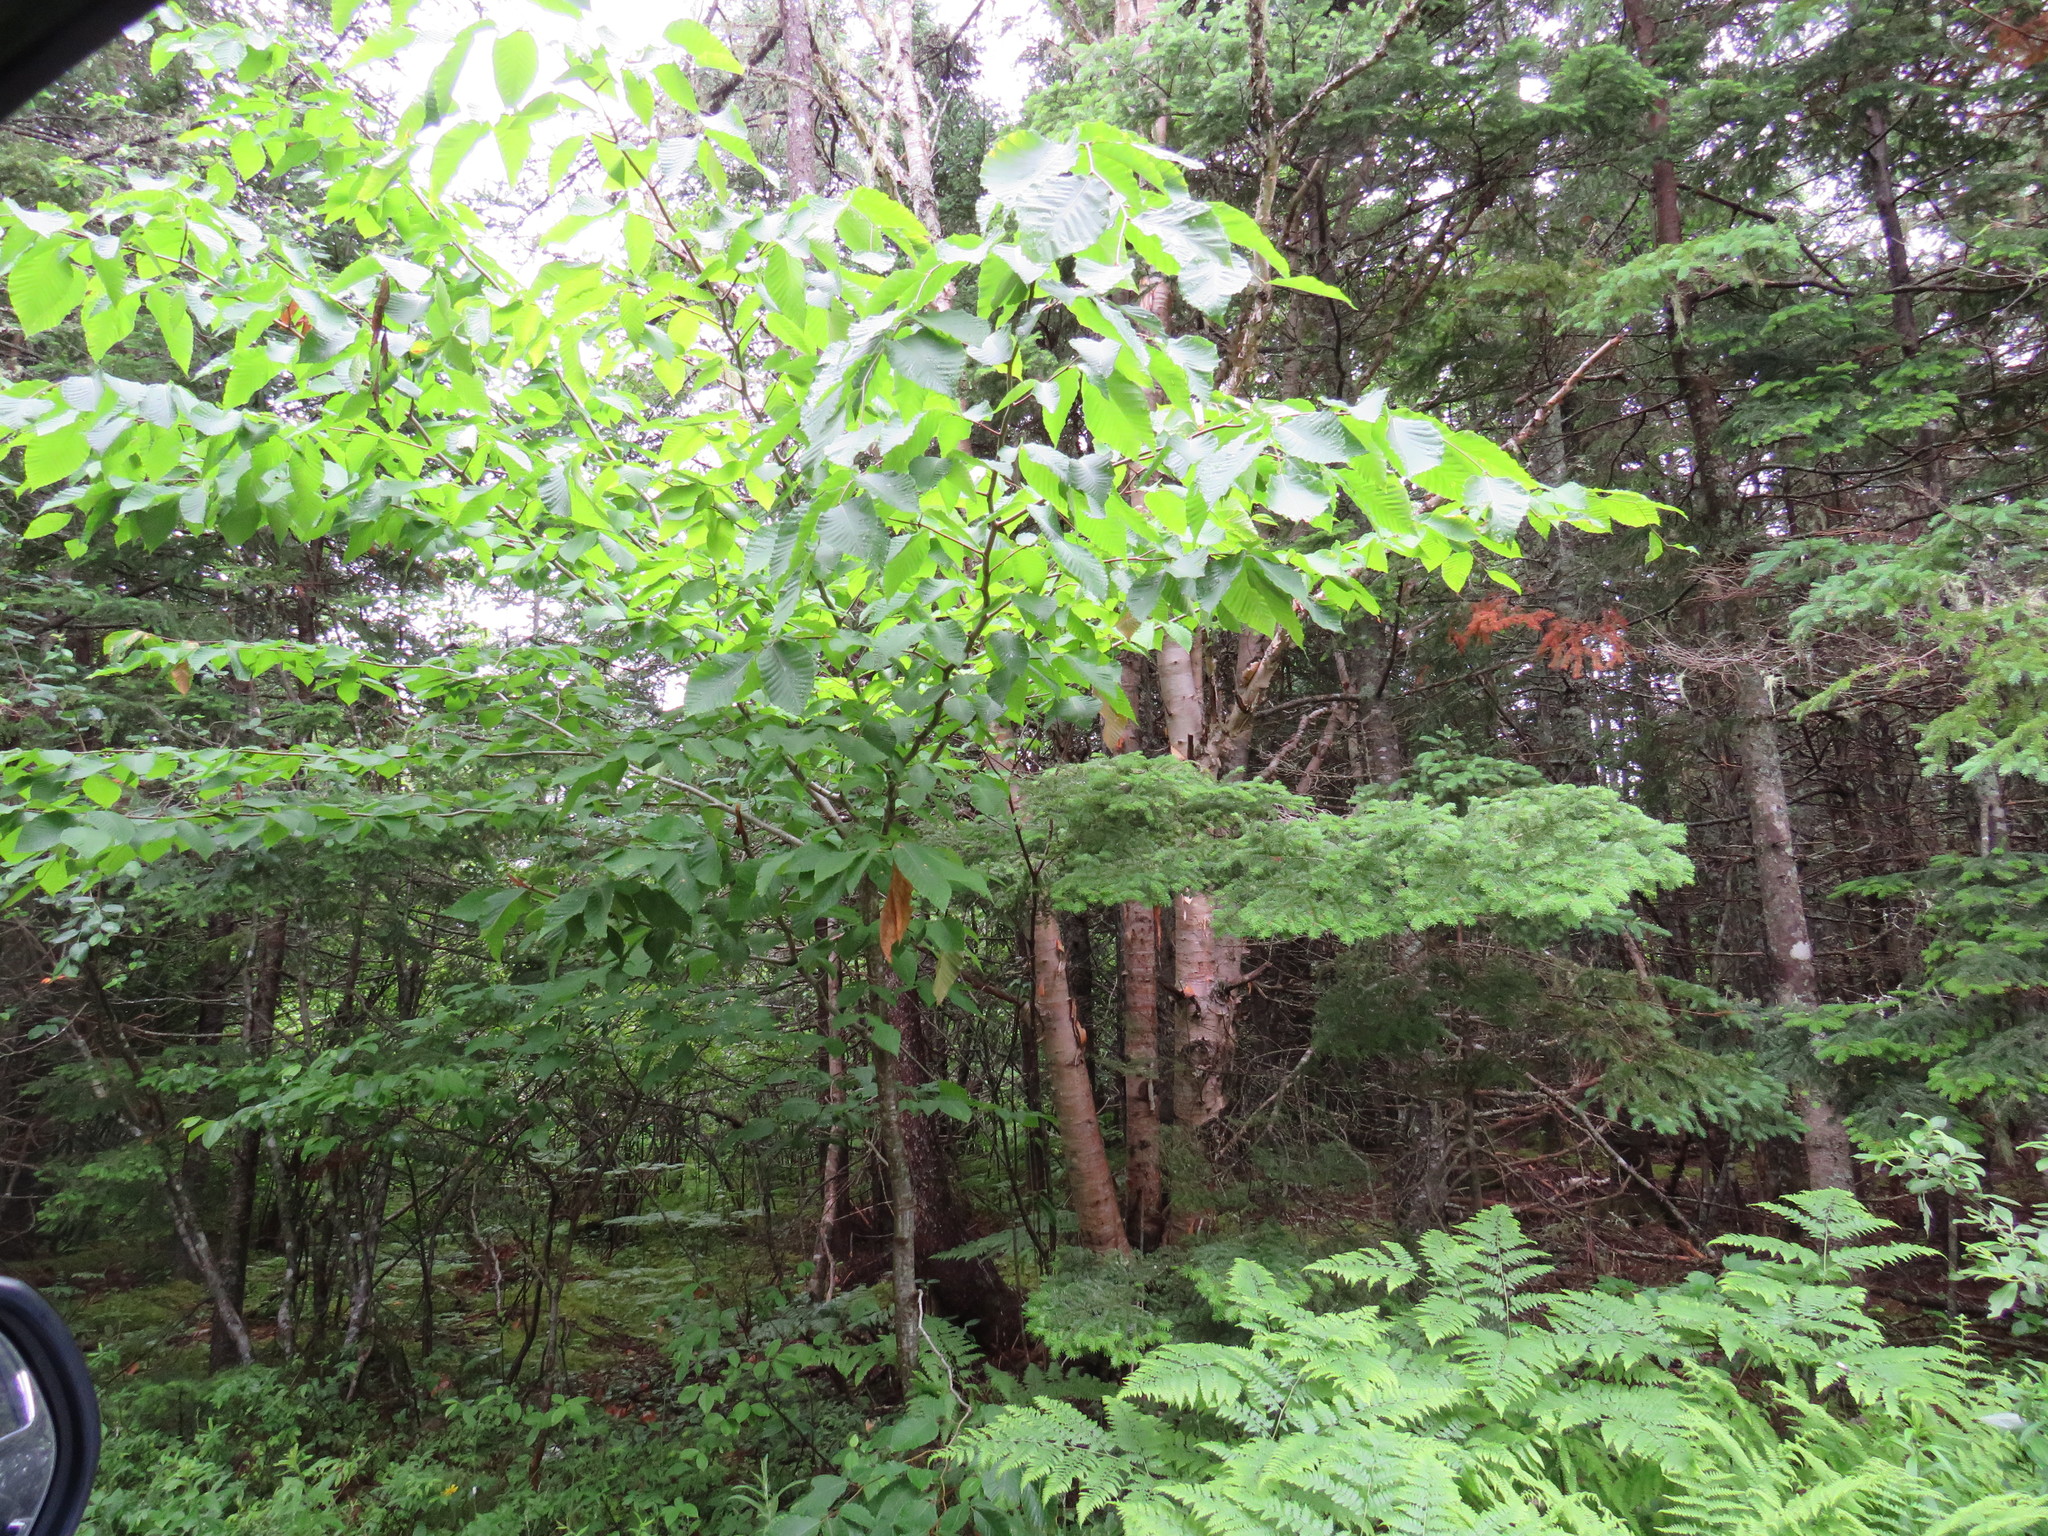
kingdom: Plantae
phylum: Tracheophyta
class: Magnoliopsida
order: Fagales
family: Fagaceae
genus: Fagus
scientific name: Fagus grandifolia
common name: American beech
